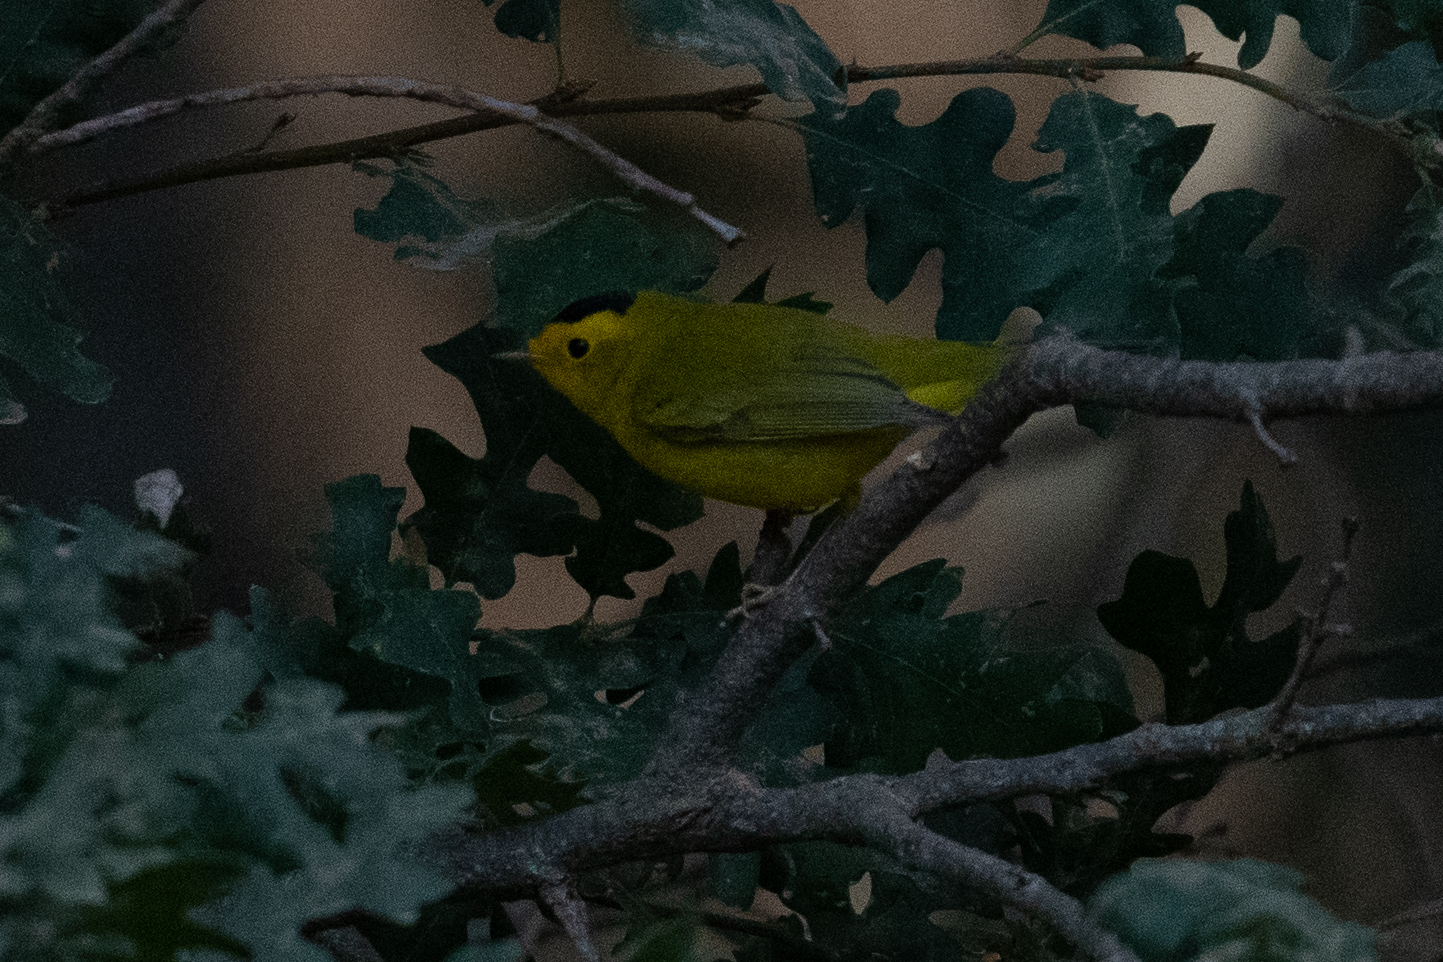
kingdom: Animalia
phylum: Chordata
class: Aves
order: Passeriformes
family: Parulidae
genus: Cardellina
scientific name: Cardellina pusilla
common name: Wilson's warbler
